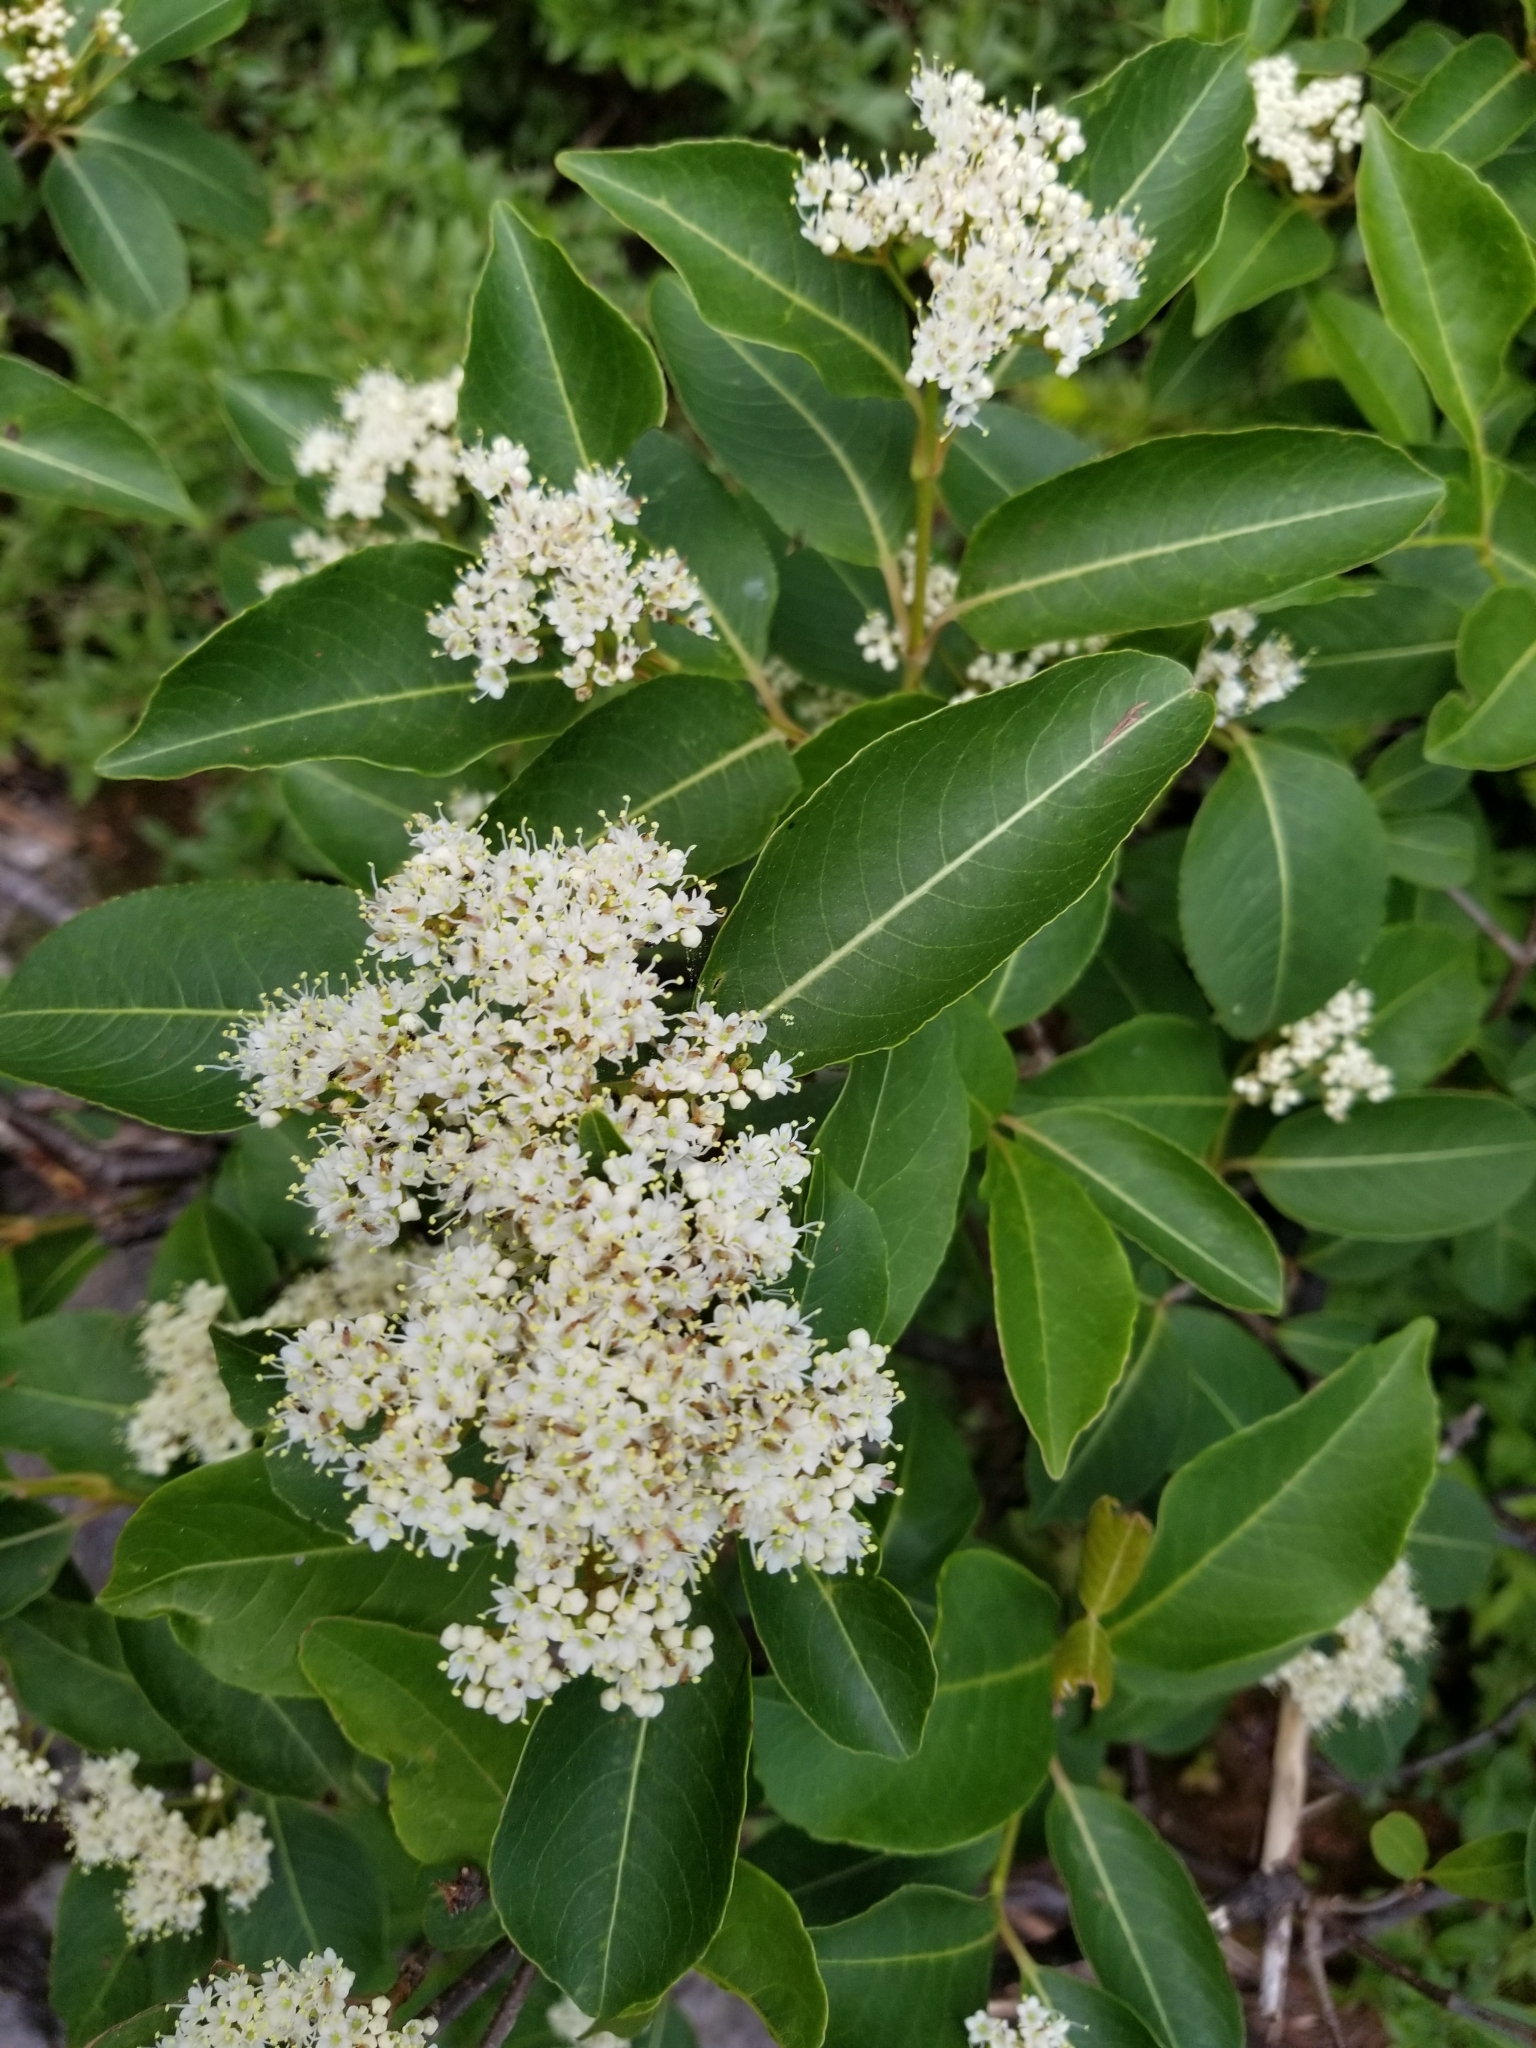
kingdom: Plantae
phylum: Tracheophyta
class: Magnoliopsida
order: Dipsacales
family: Viburnaceae
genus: Viburnum
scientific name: Viburnum cassinoides
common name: Swamp haw
